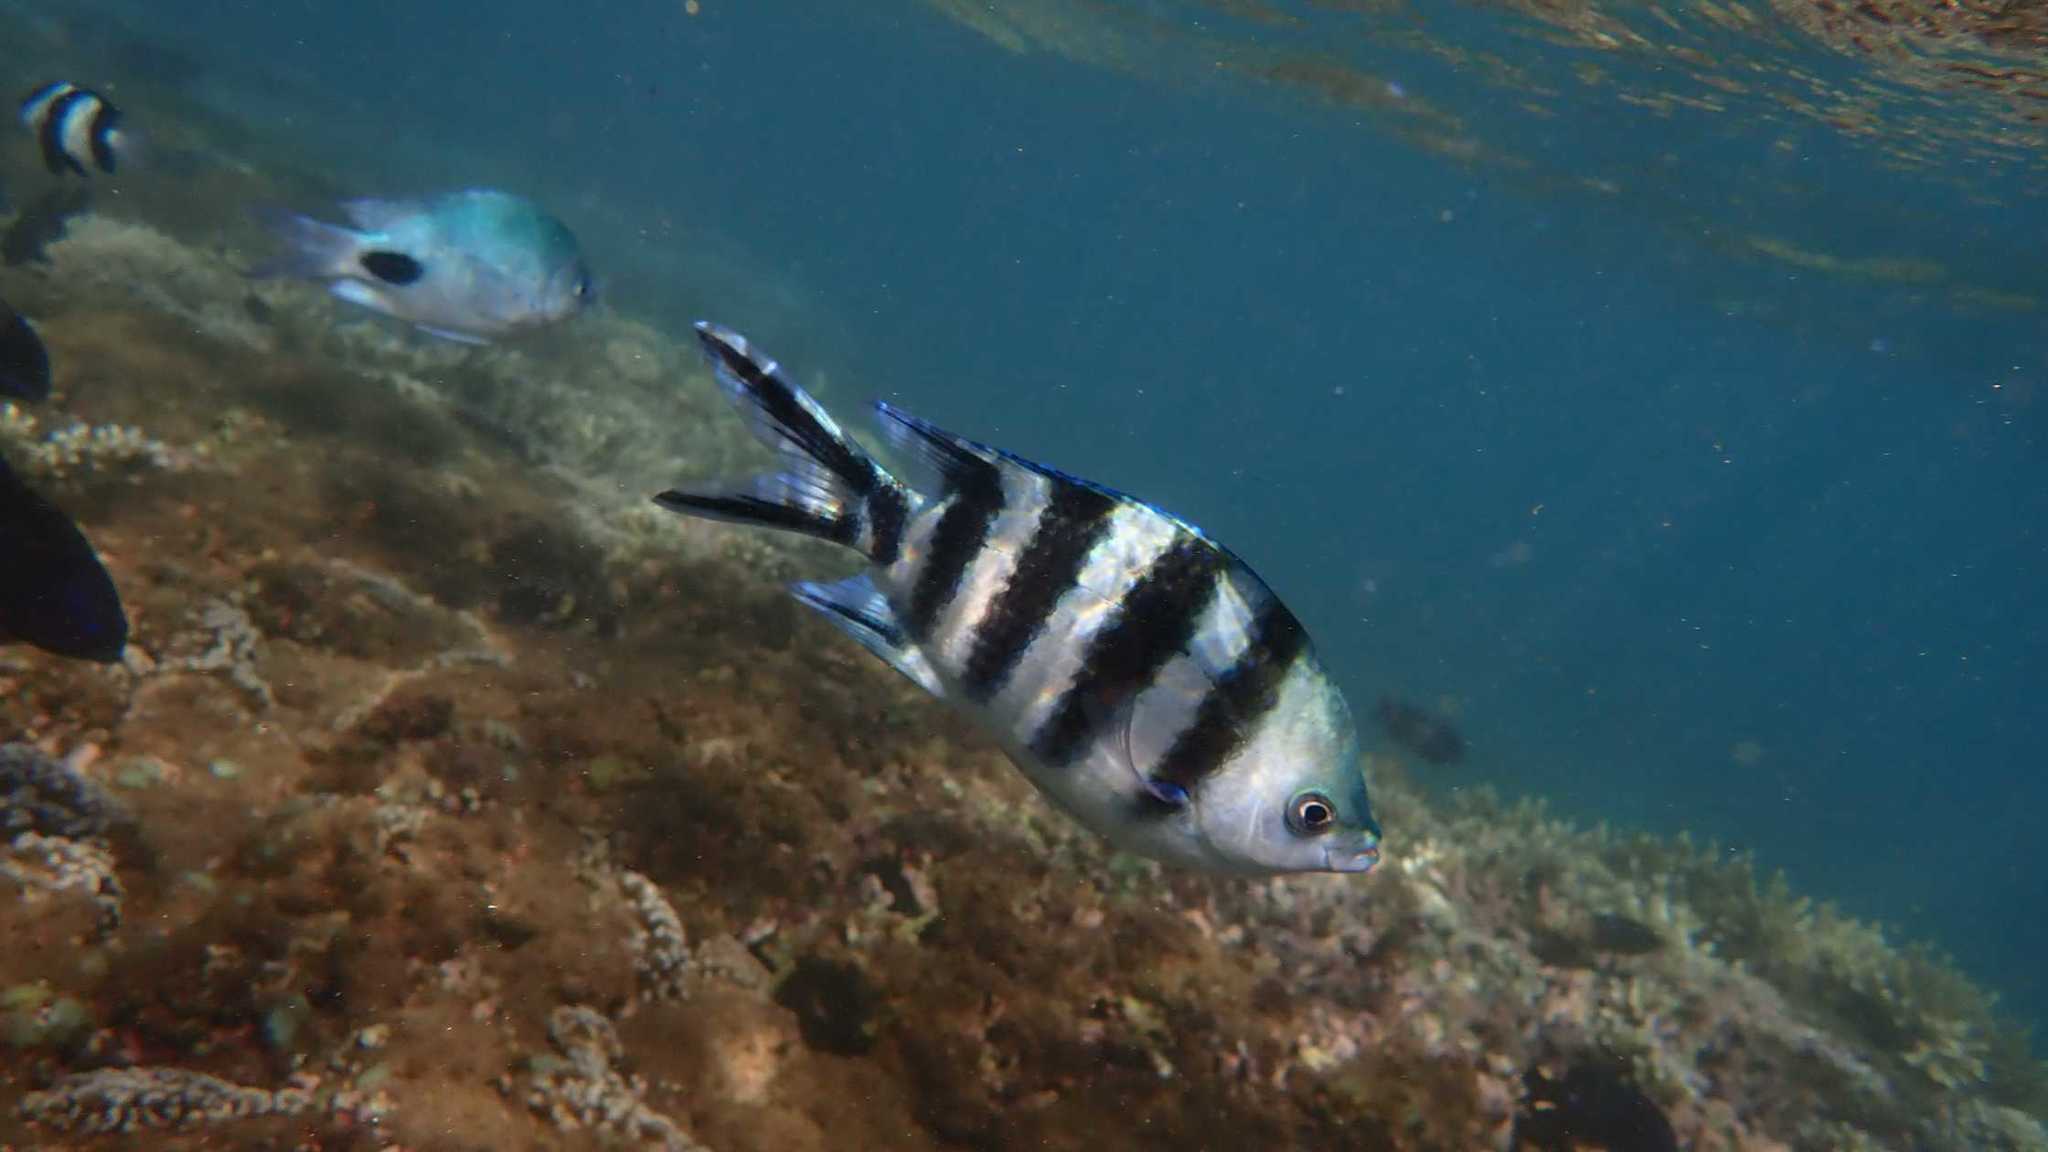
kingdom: Animalia
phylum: Chordata
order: Perciformes
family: Pomacentridae
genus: Abudefduf
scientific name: Abudefduf sexfasciatus
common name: Scissortail sergeant
